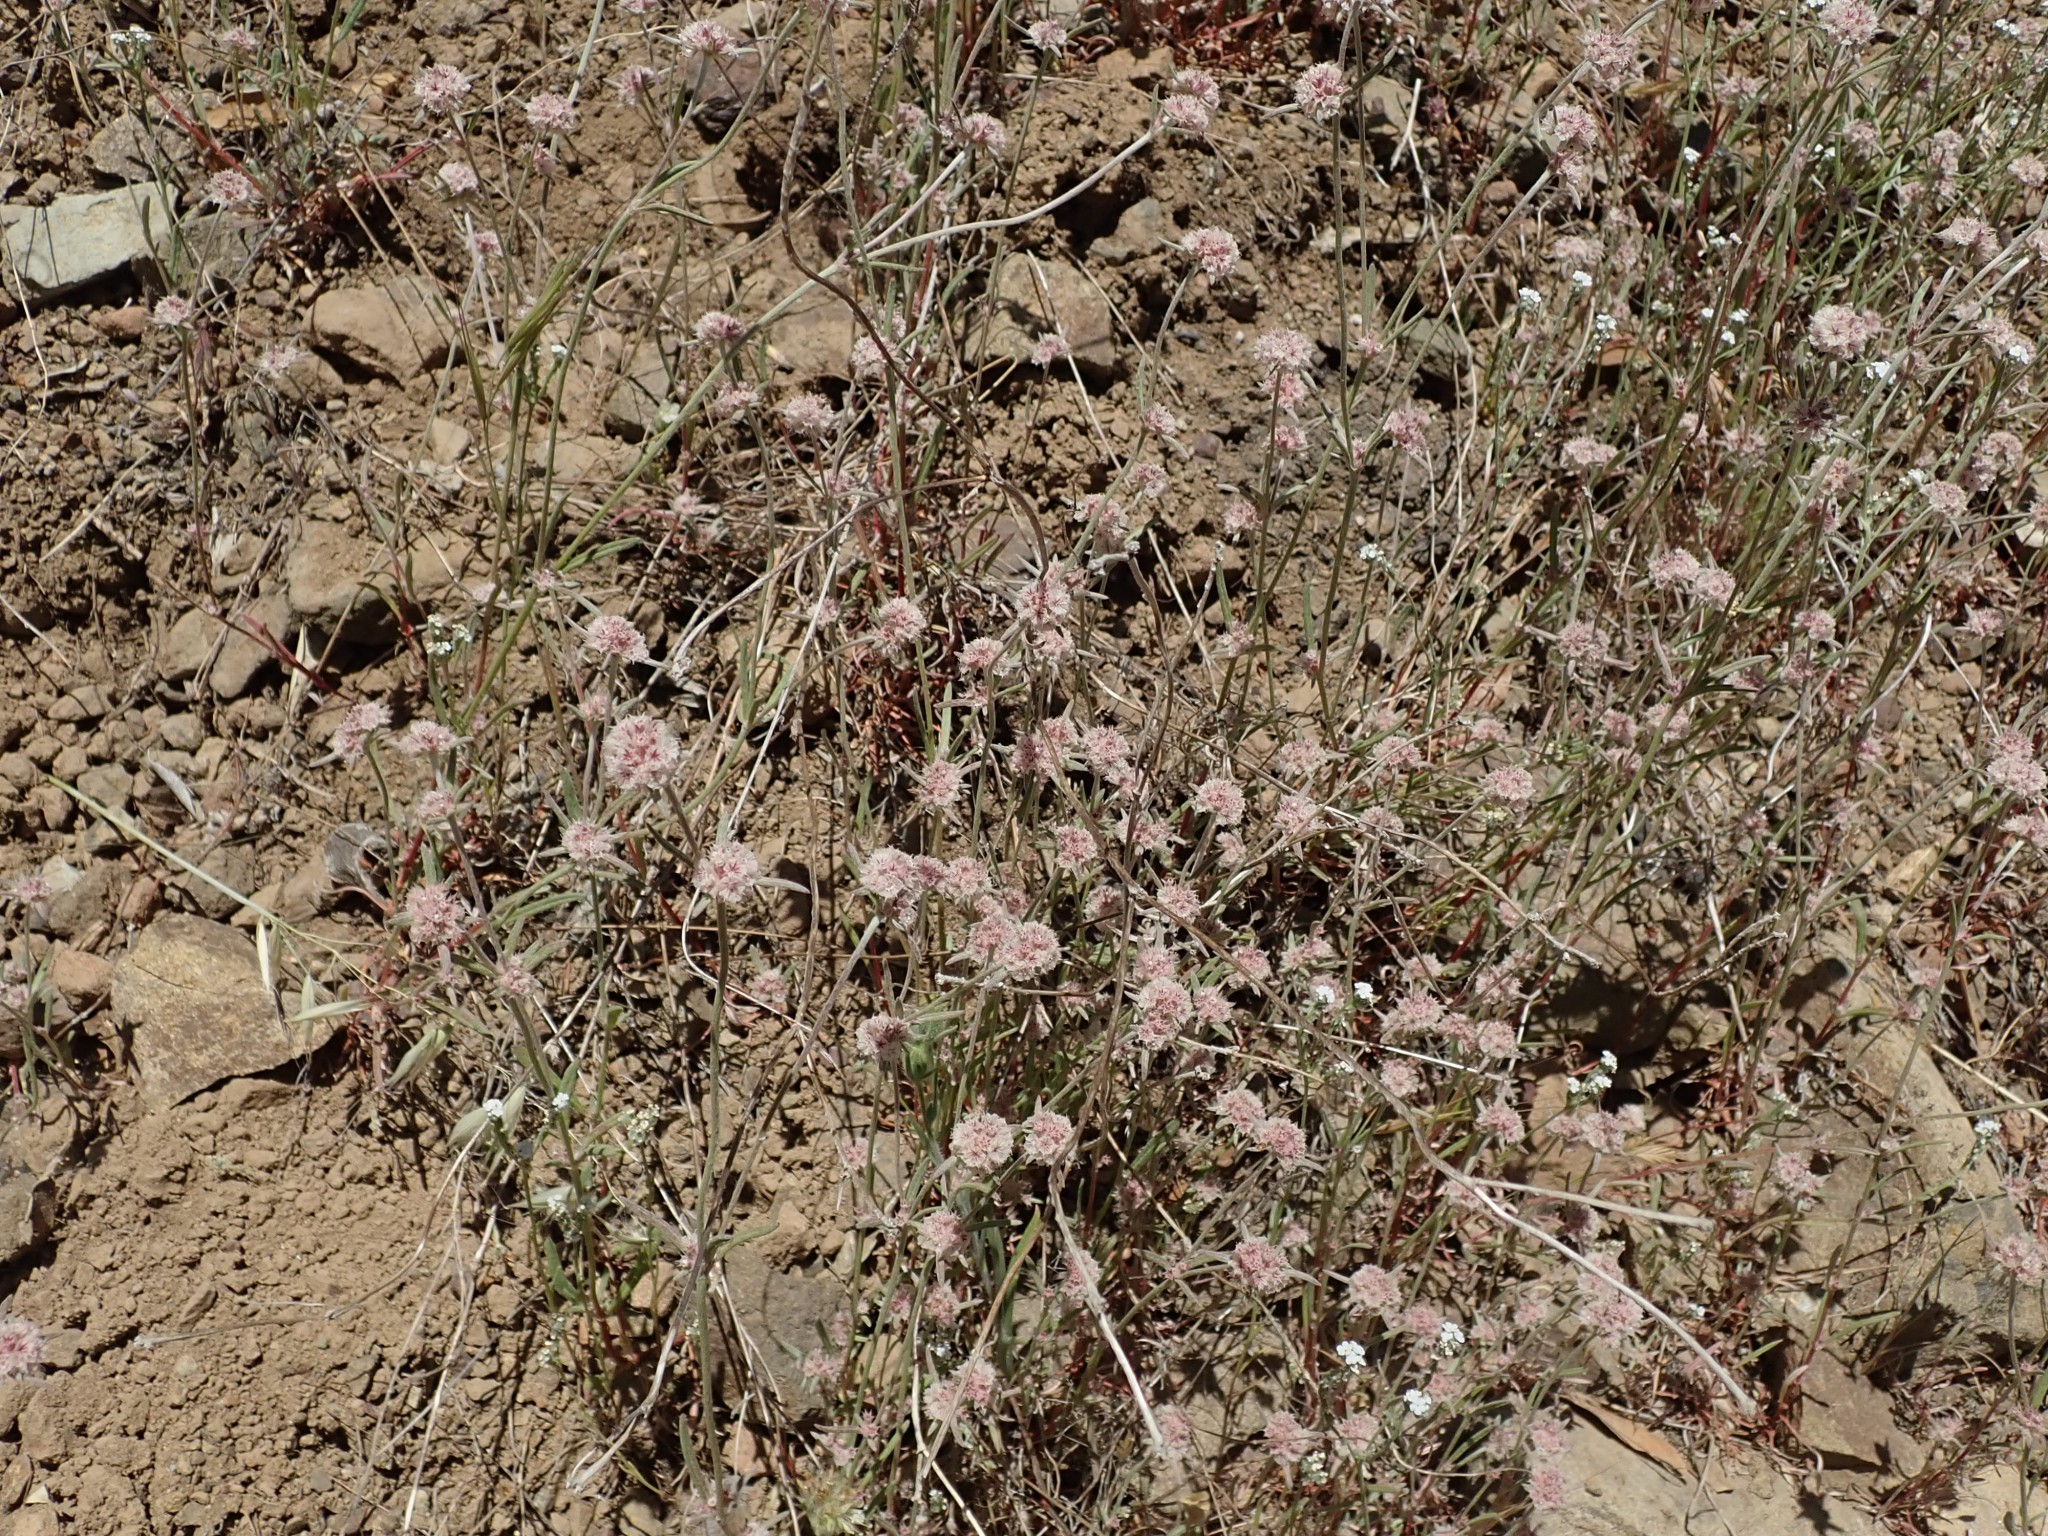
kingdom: Plantae
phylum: Tracheophyta
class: Magnoliopsida
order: Caryophyllales
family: Polygonaceae
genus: Chorizanthe
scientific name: Chorizanthe membranacea
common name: Pink spineflower
